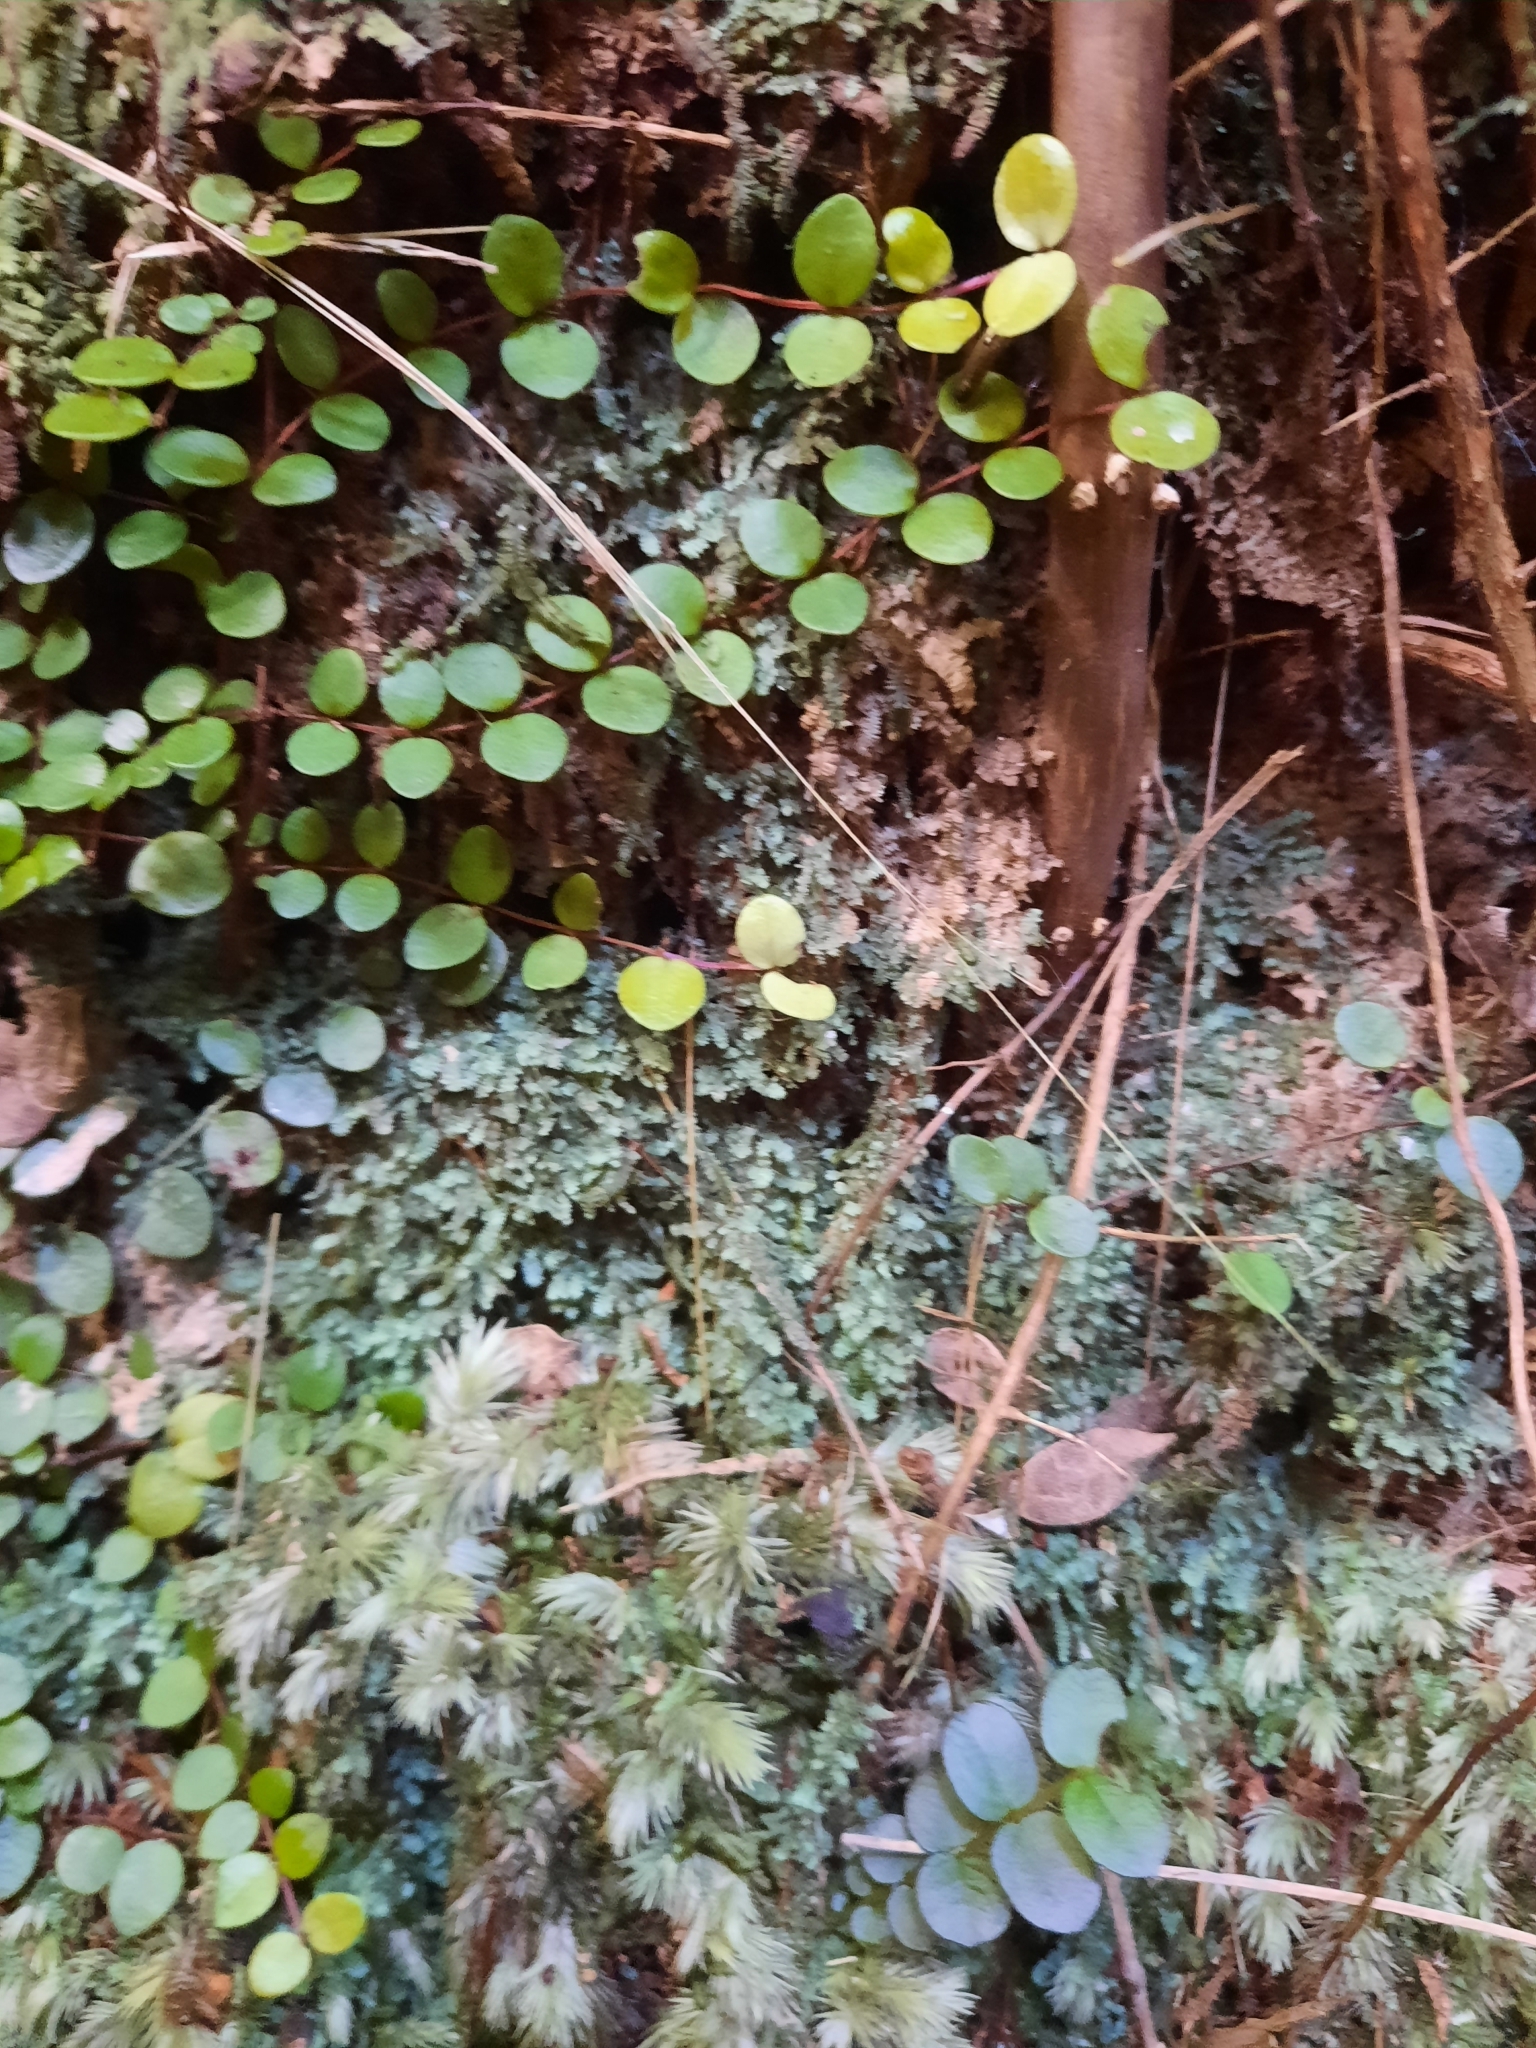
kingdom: Plantae
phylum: Marchantiophyta
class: Jungermanniopsida
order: Jungermanniales
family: Lepidoziaceae
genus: Bazzania
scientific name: Bazzania tayloriana
